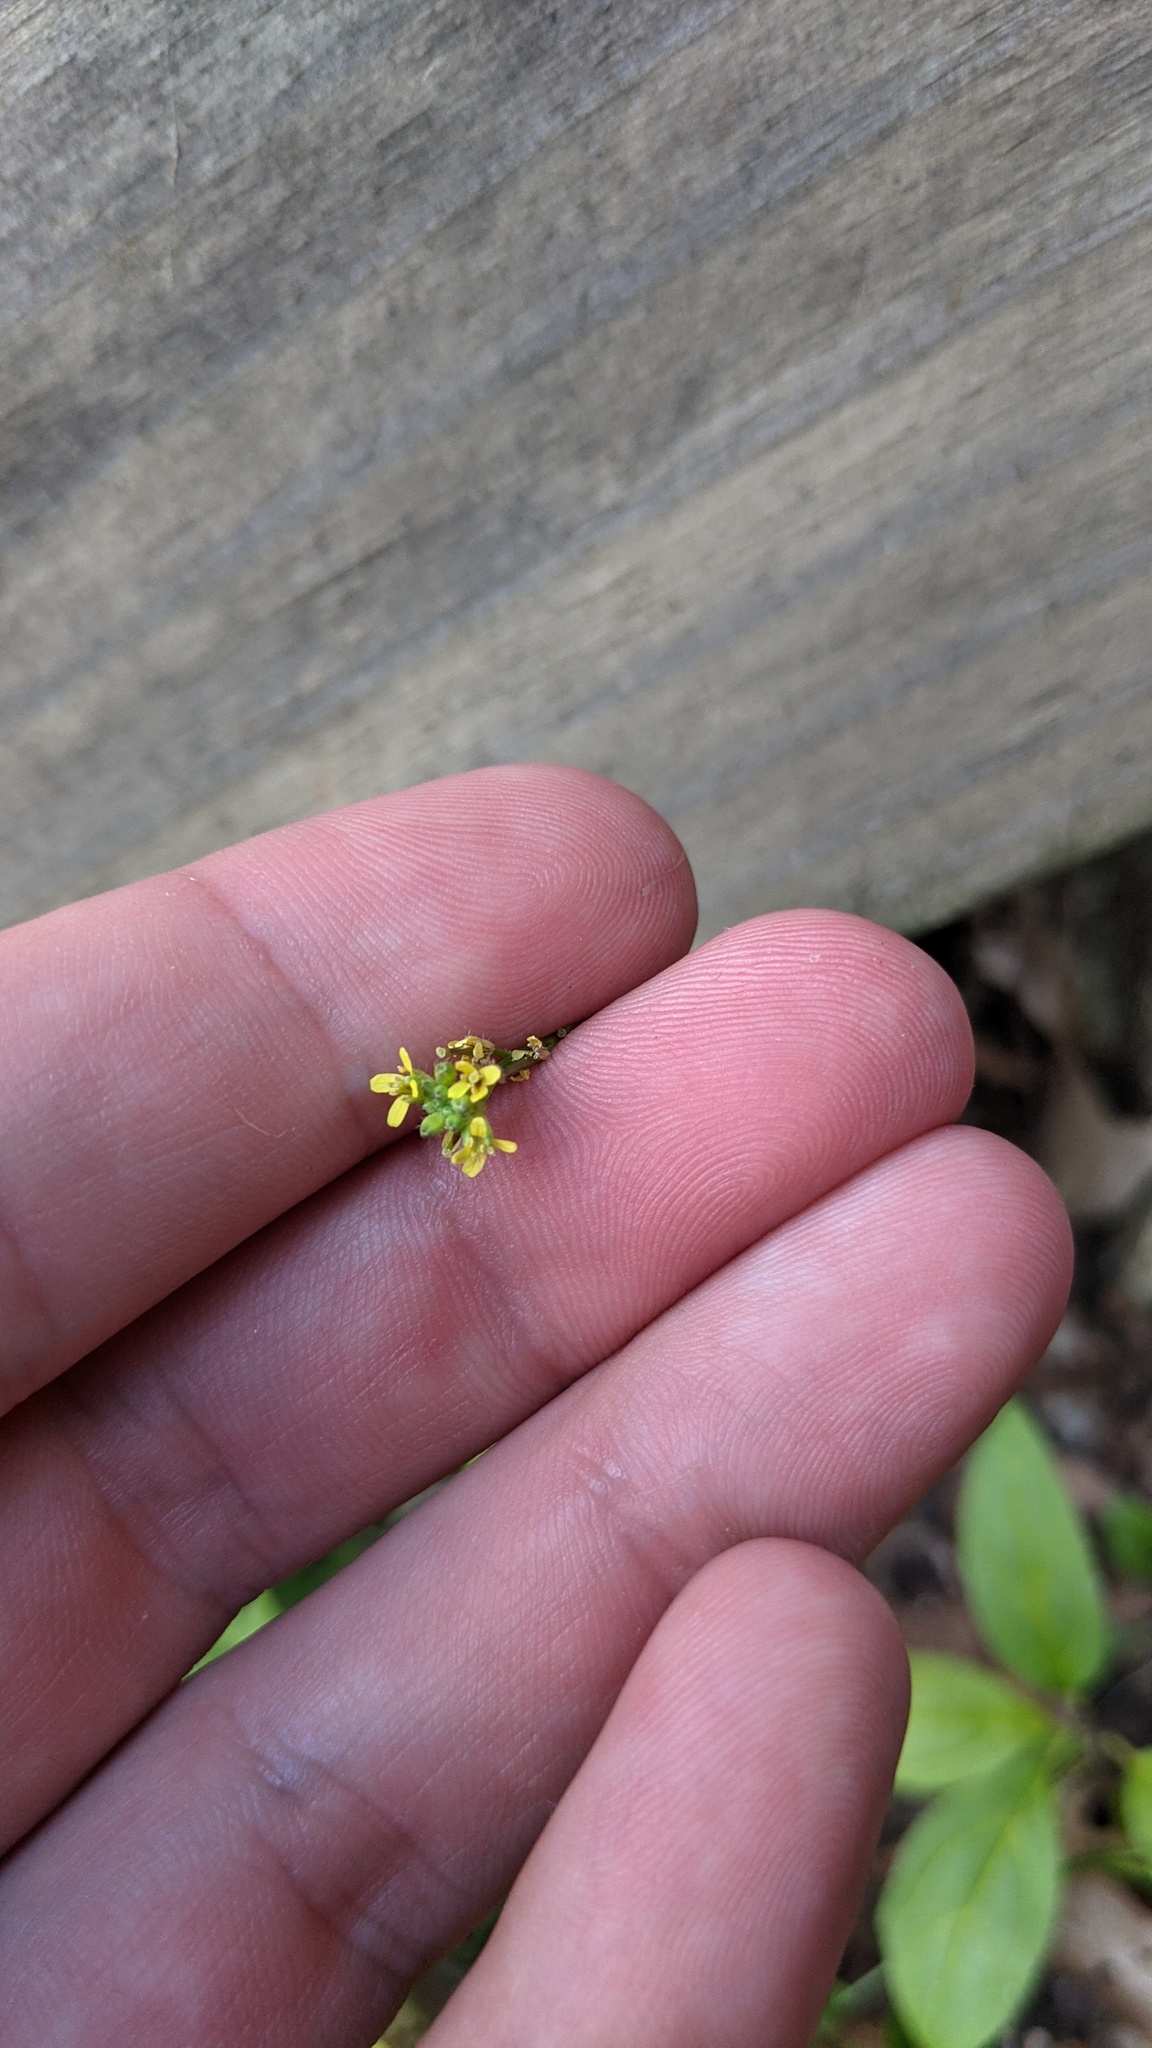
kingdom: Animalia
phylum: Arthropoda
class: Insecta
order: Diptera
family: Agromyzidae
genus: Liriomyza
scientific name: Liriomyza brassicae
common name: Serpentine leaf miner
